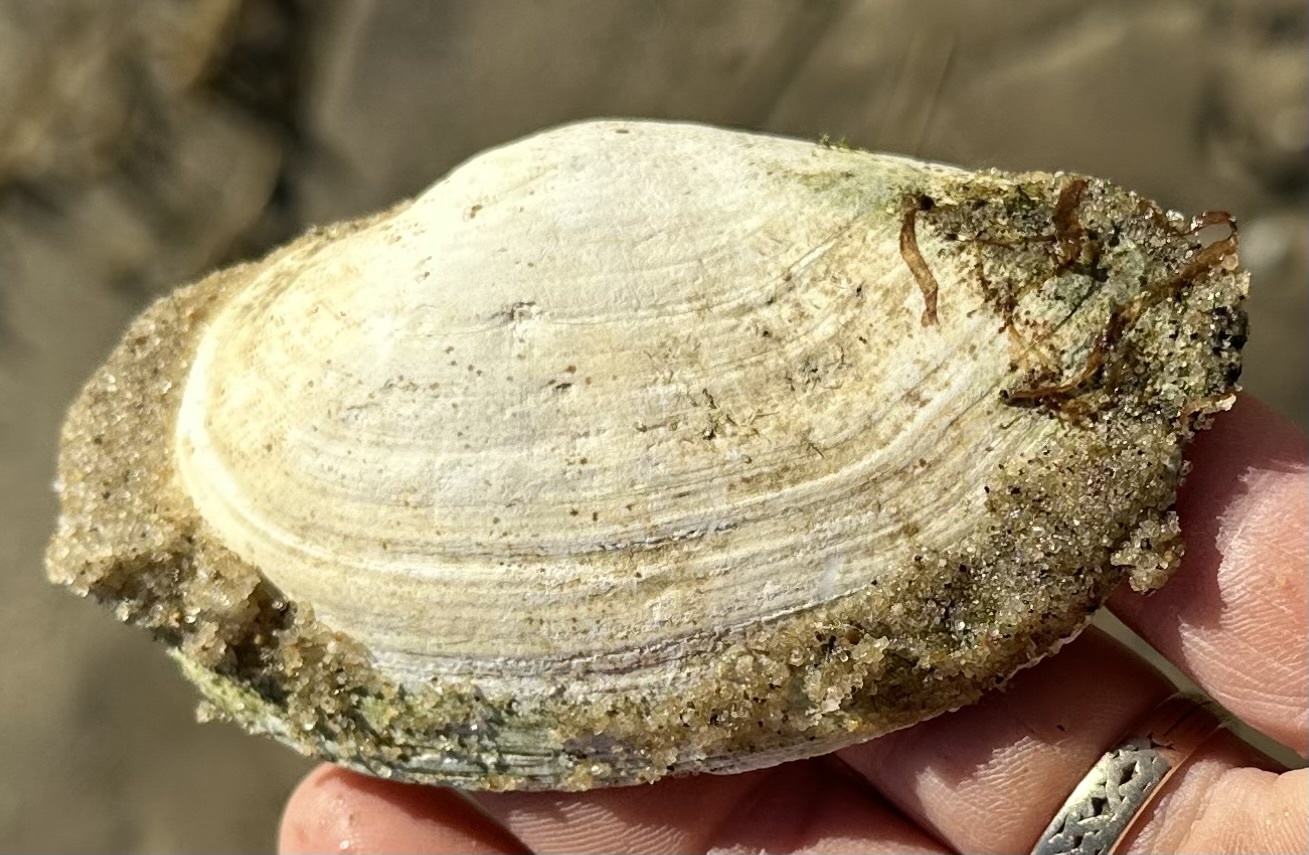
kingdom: Animalia
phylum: Mollusca
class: Bivalvia
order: Myida
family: Myidae
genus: Mya
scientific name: Mya arenaria
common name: Soft-shelled clam
